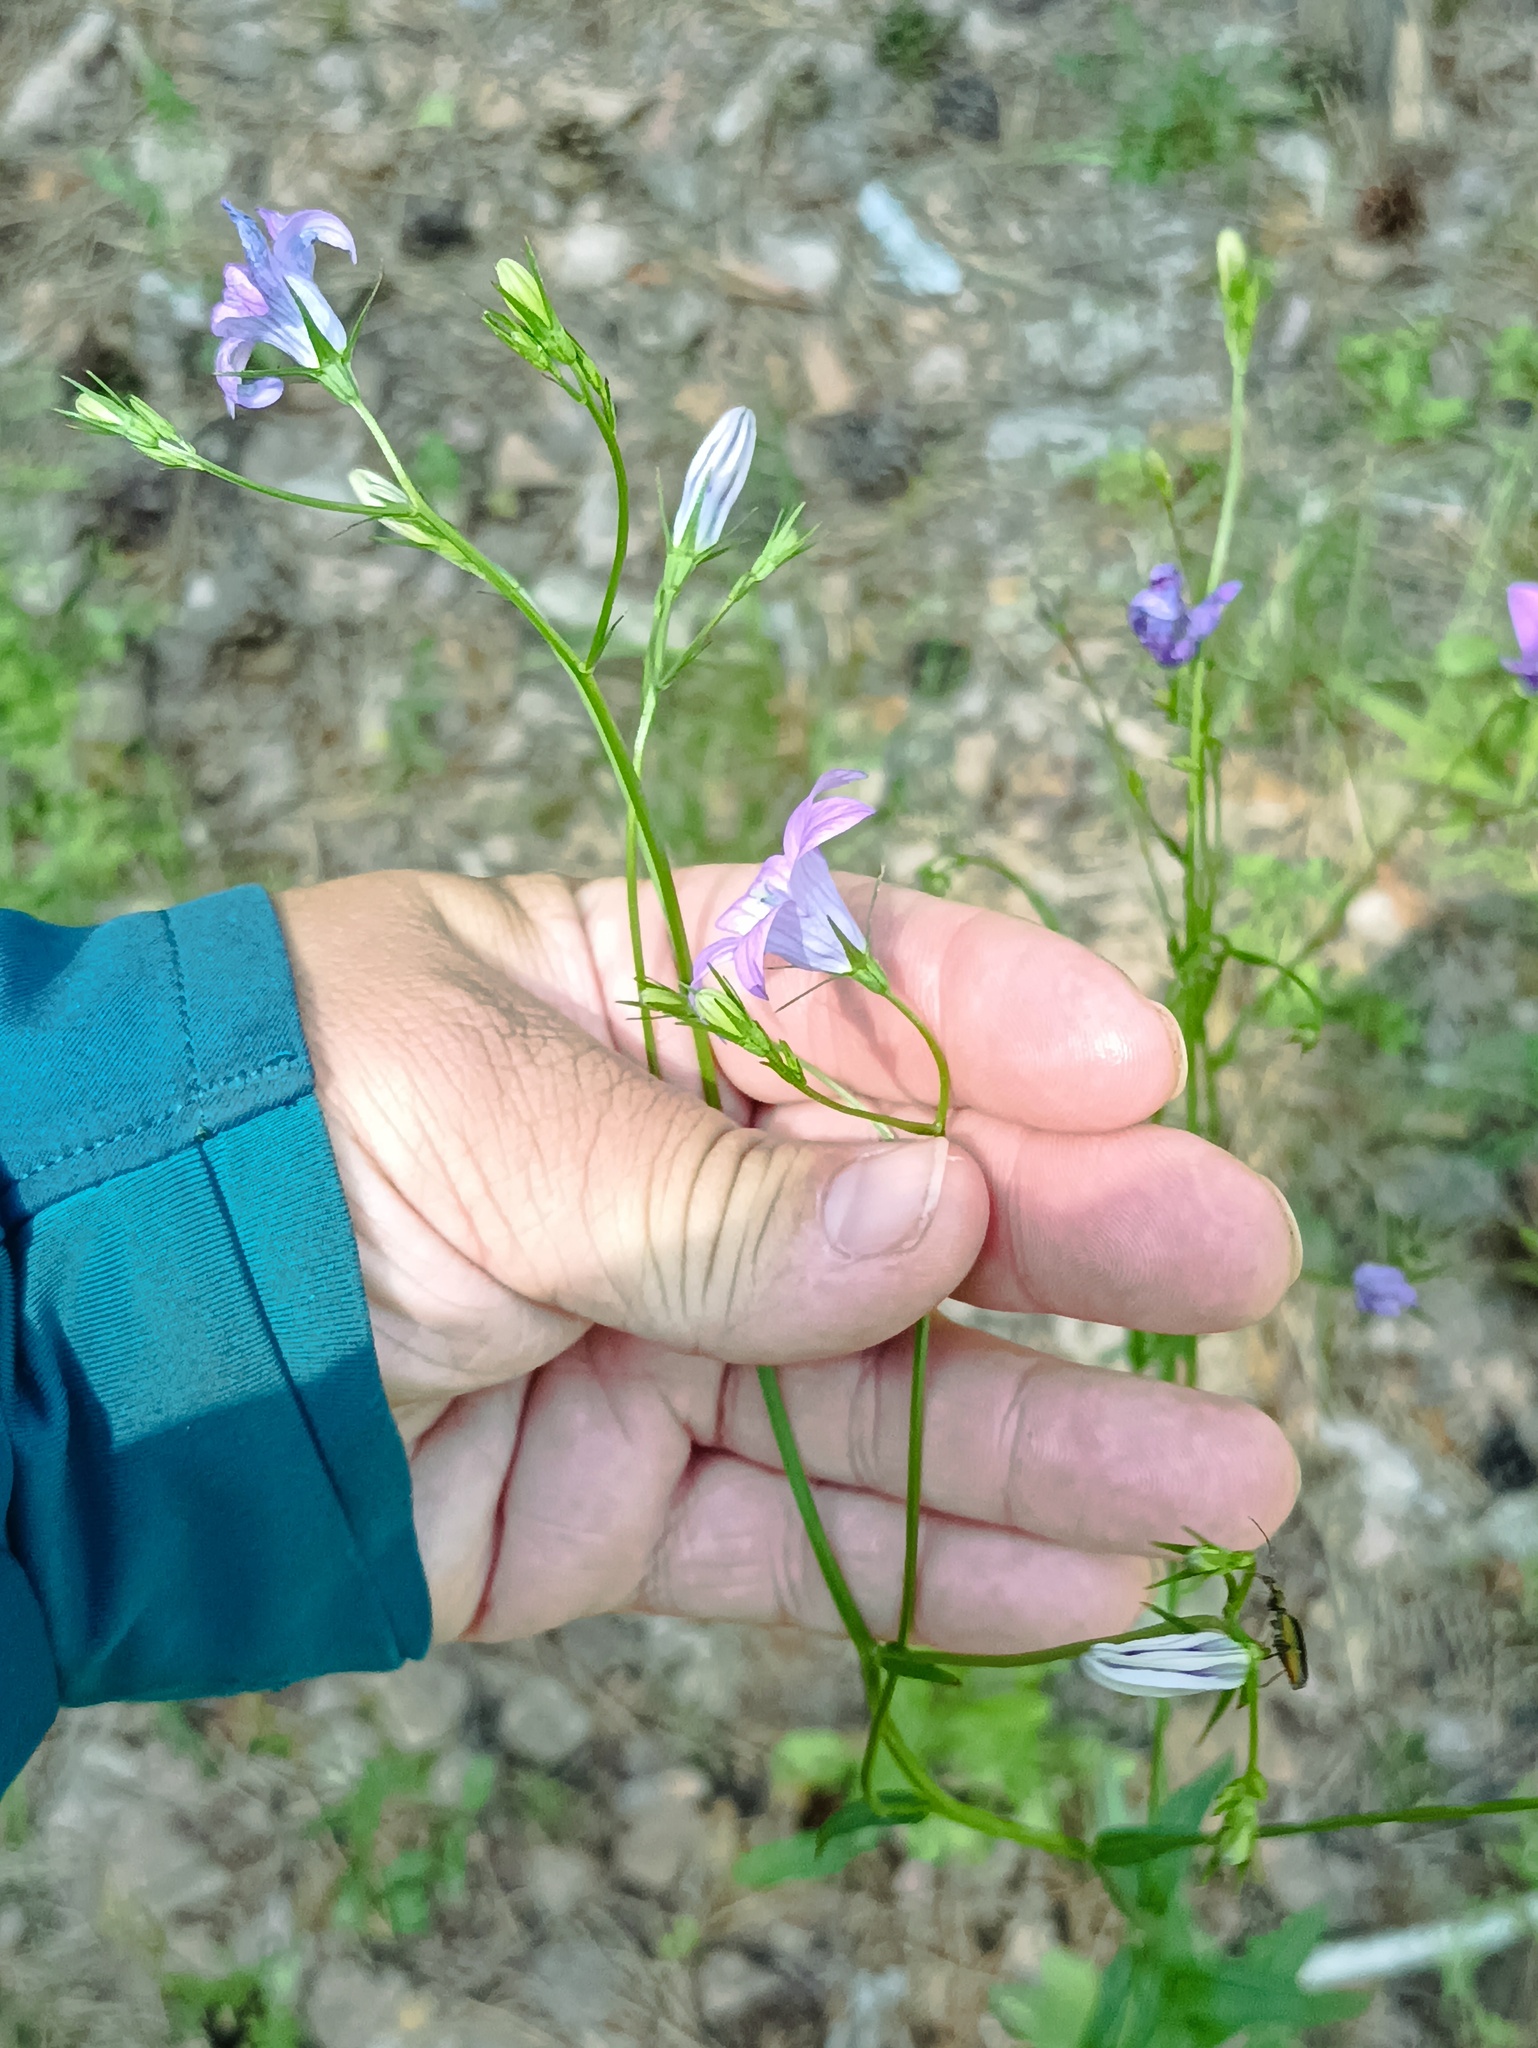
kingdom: Plantae
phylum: Tracheophyta
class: Magnoliopsida
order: Asterales
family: Campanulaceae
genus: Campanula
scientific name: Campanula patula
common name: Spreading bellflower
